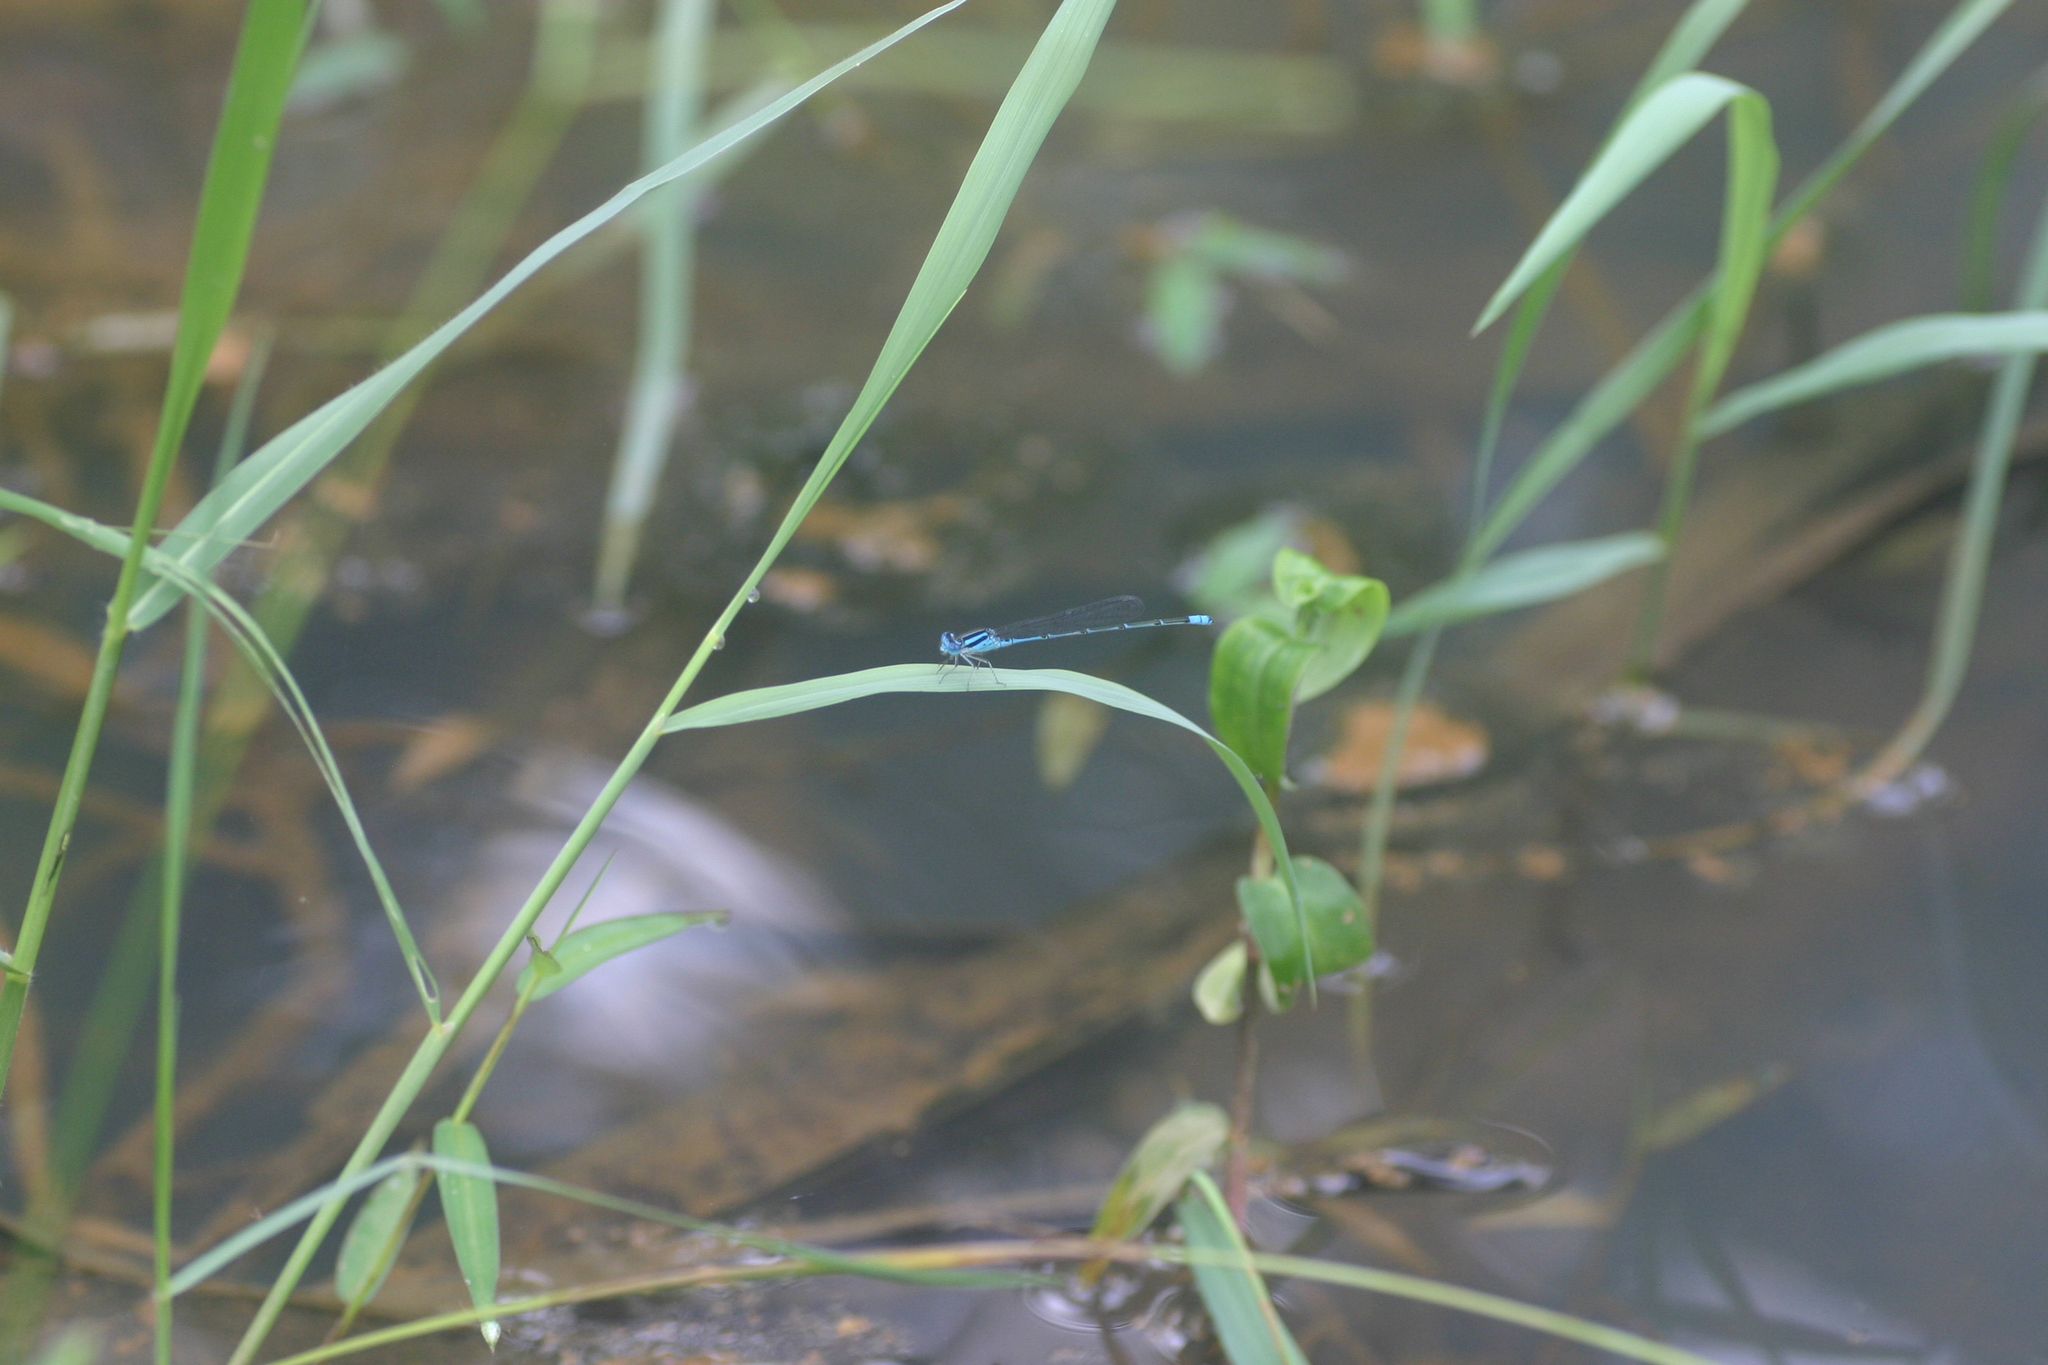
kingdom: Animalia
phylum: Arthropoda
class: Insecta
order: Odonata
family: Coenagrionidae
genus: Pseudagrion
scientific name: Pseudagrion malabaricum
